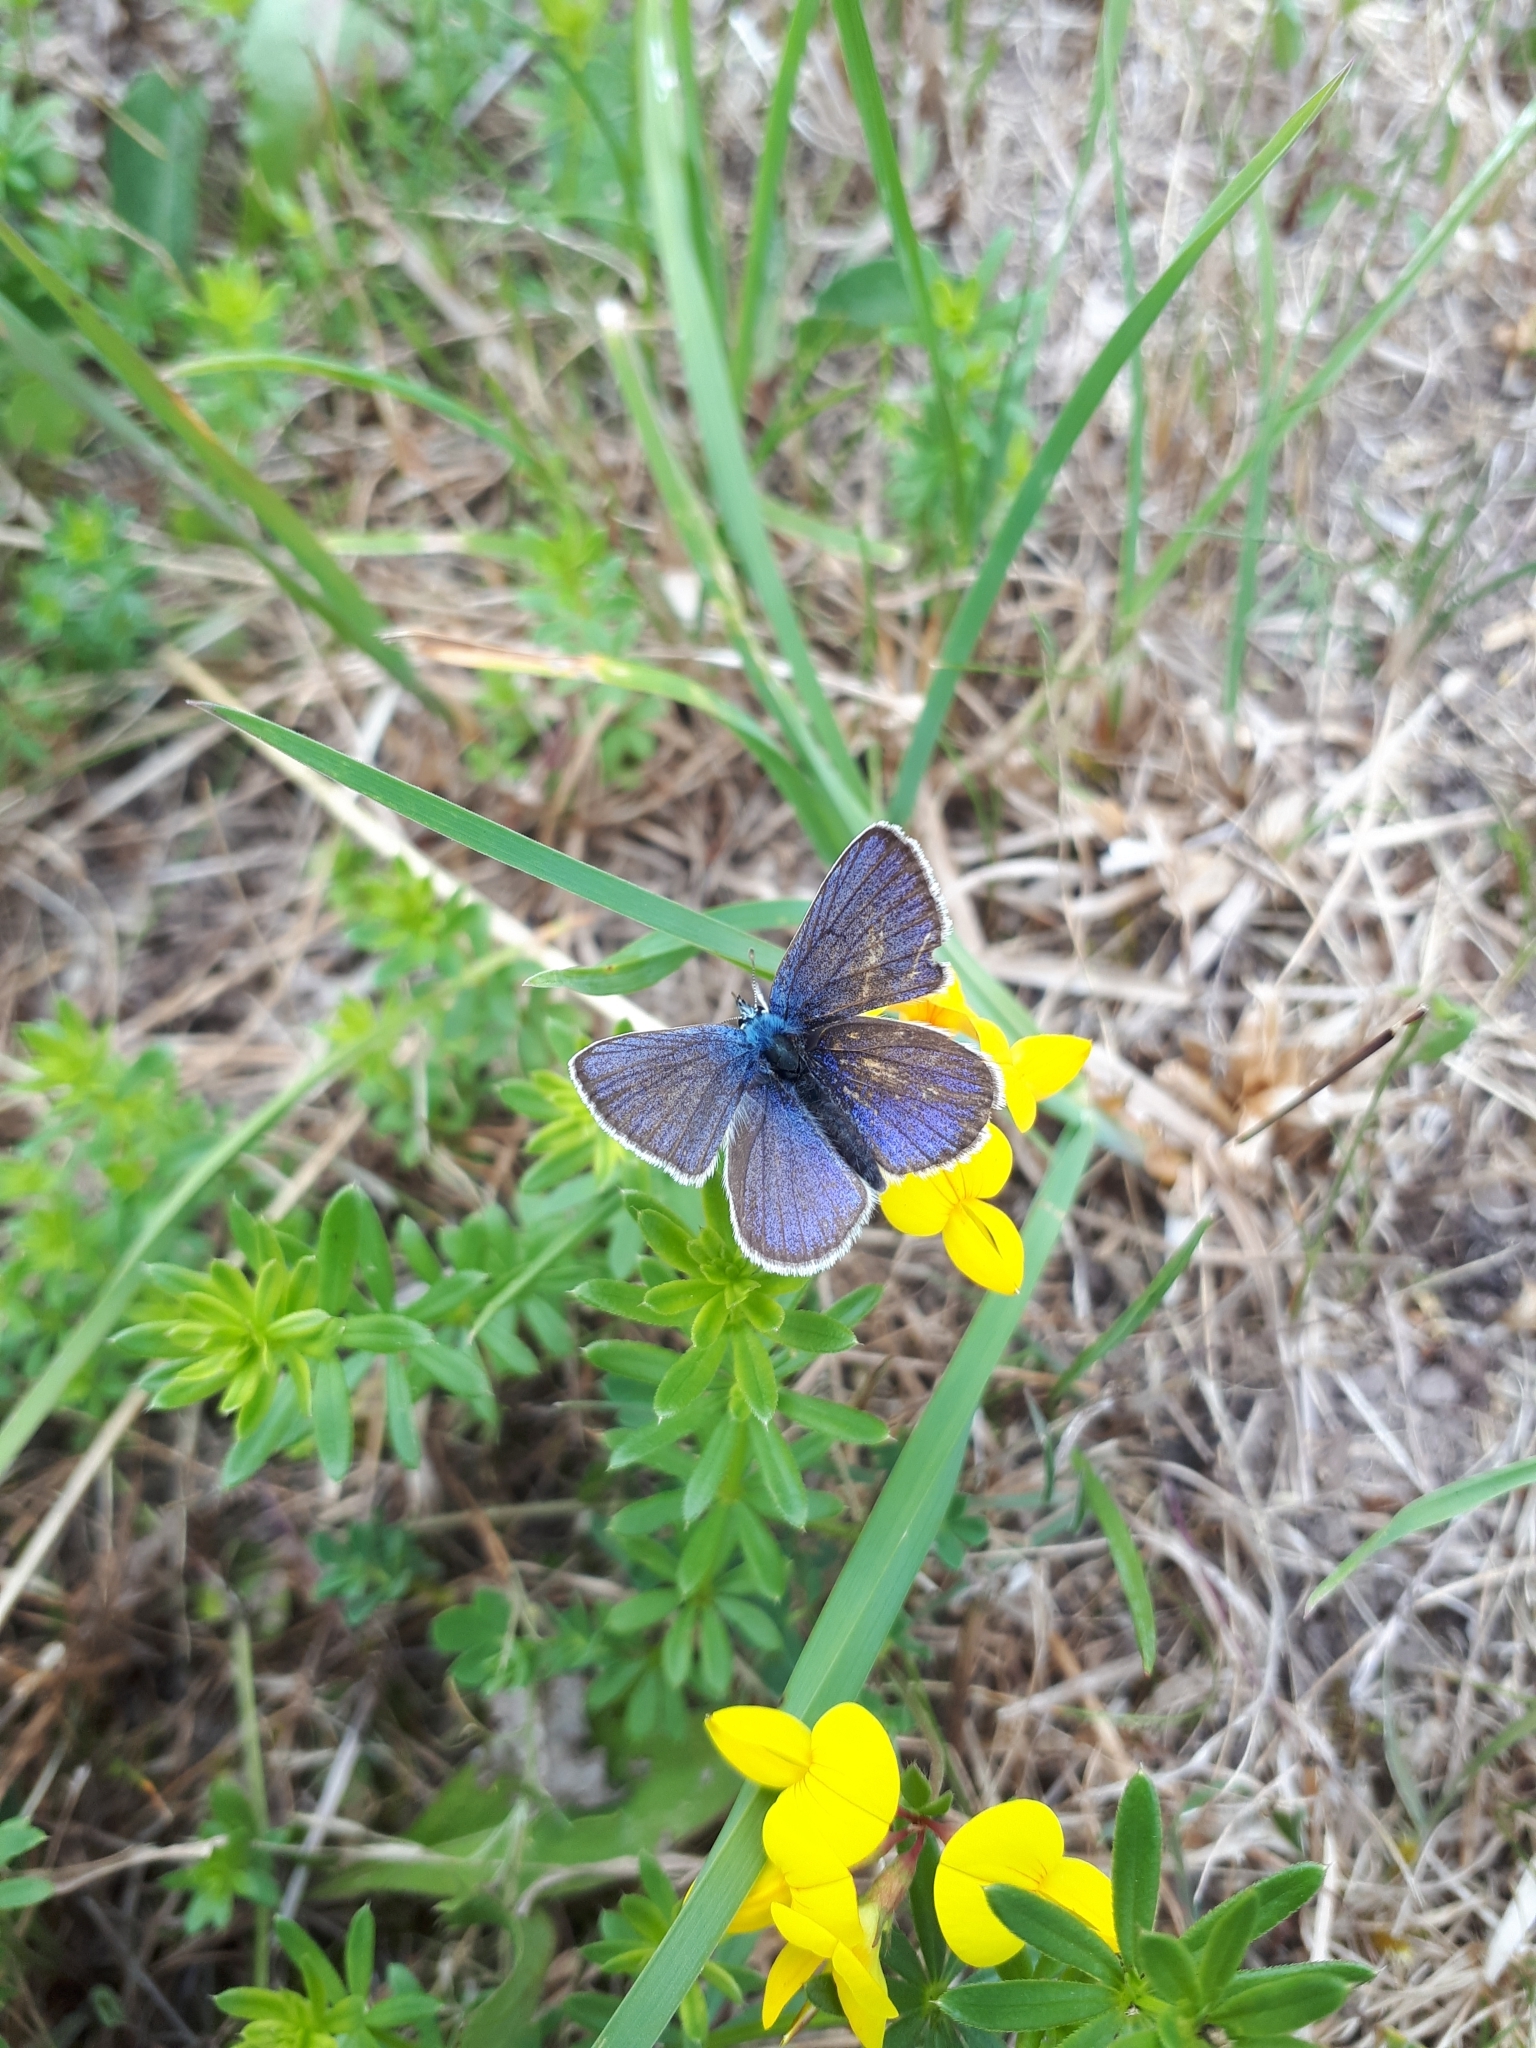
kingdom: Animalia
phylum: Arthropoda
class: Insecta
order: Lepidoptera
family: Lycaenidae
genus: Cyaniris
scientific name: Cyaniris semiargus
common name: Mazarine blue
